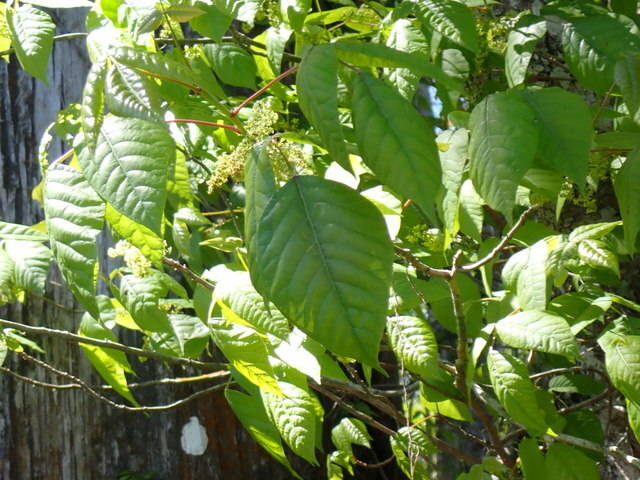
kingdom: Plantae
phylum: Tracheophyta
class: Magnoliopsida
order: Sapindales
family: Anacardiaceae
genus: Toxicodendron
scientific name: Toxicodendron radicans
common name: Poison ivy
